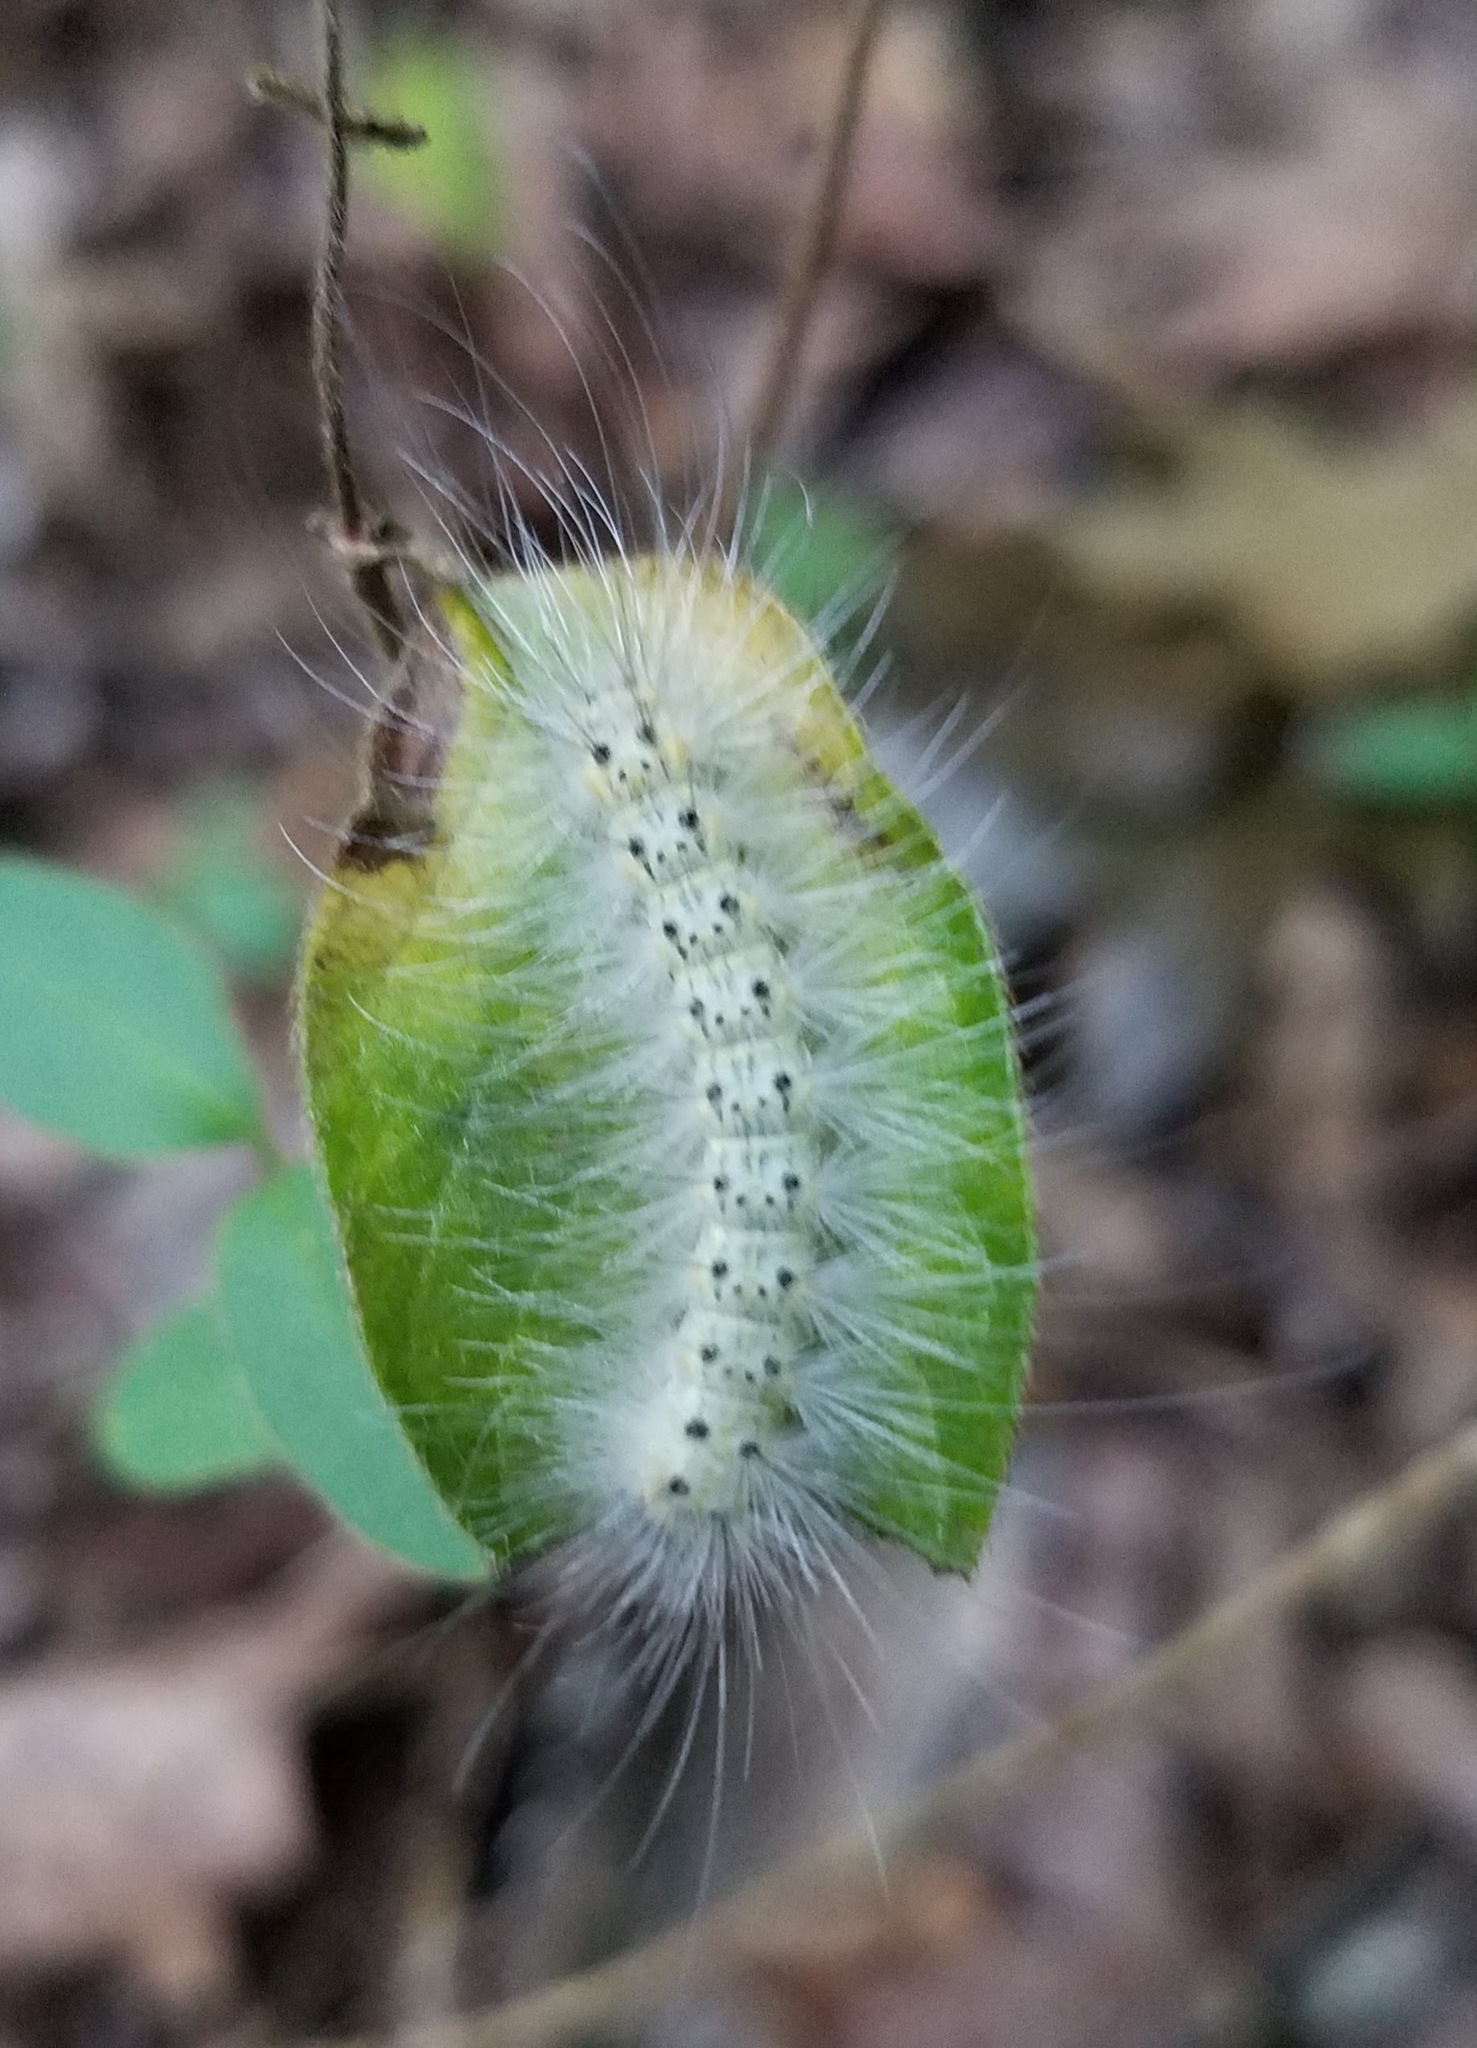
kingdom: Animalia
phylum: Arthropoda
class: Insecta
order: Lepidoptera
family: Erebidae
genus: Hyphantria
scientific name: Hyphantria cunea
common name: American white moth
